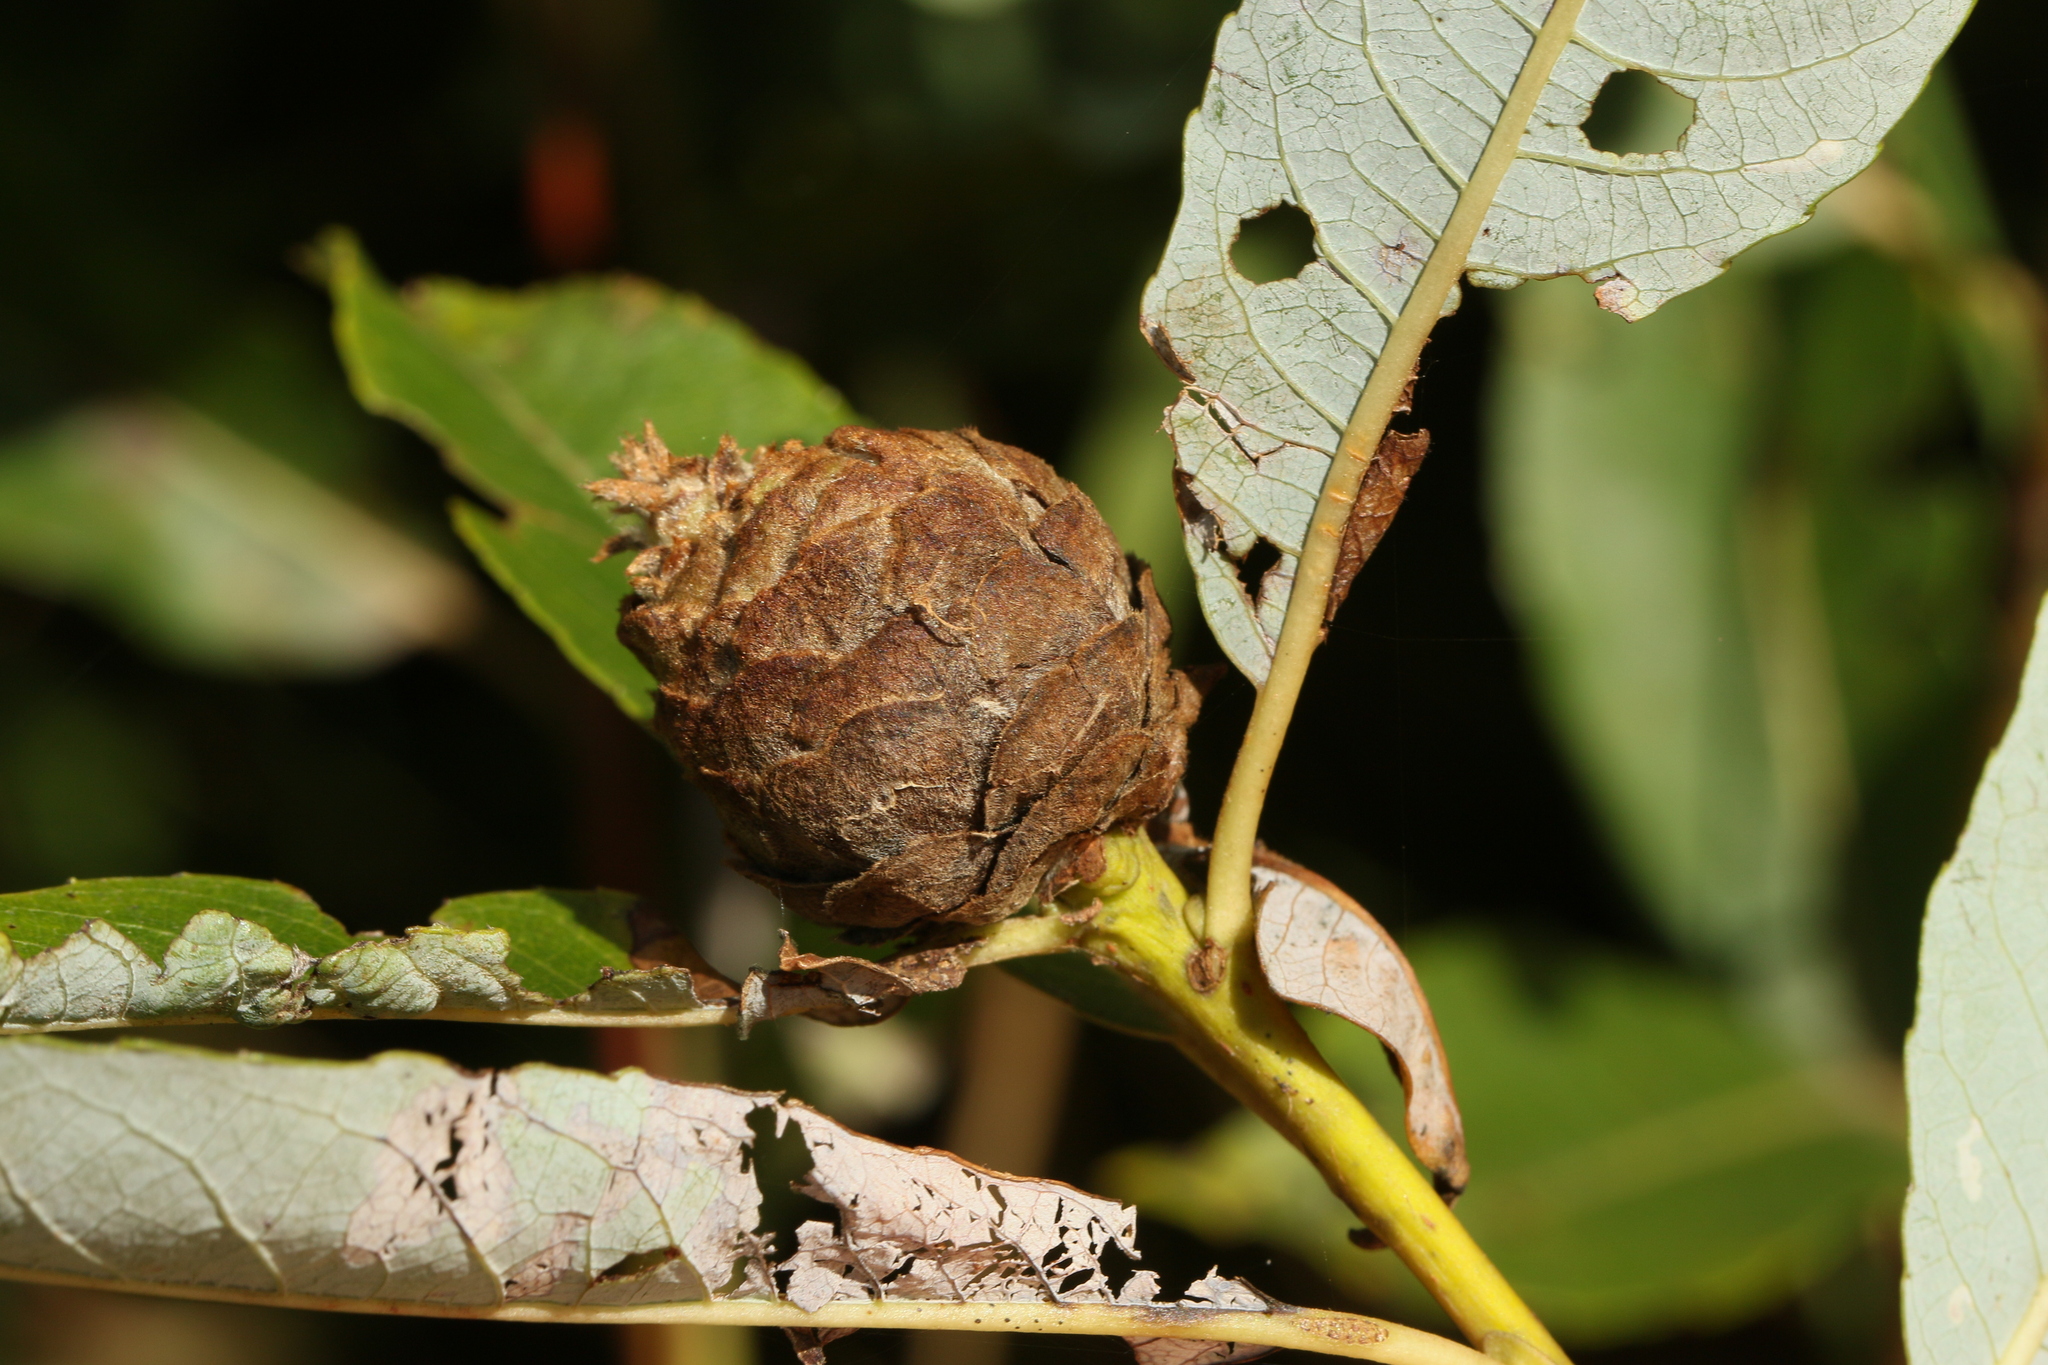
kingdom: Animalia
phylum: Arthropoda
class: Insecta
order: Diptera
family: Cecidomyiidae
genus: Rabdophaga
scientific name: Rabdophaga strobiloides
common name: Willow pinecone gall midge
